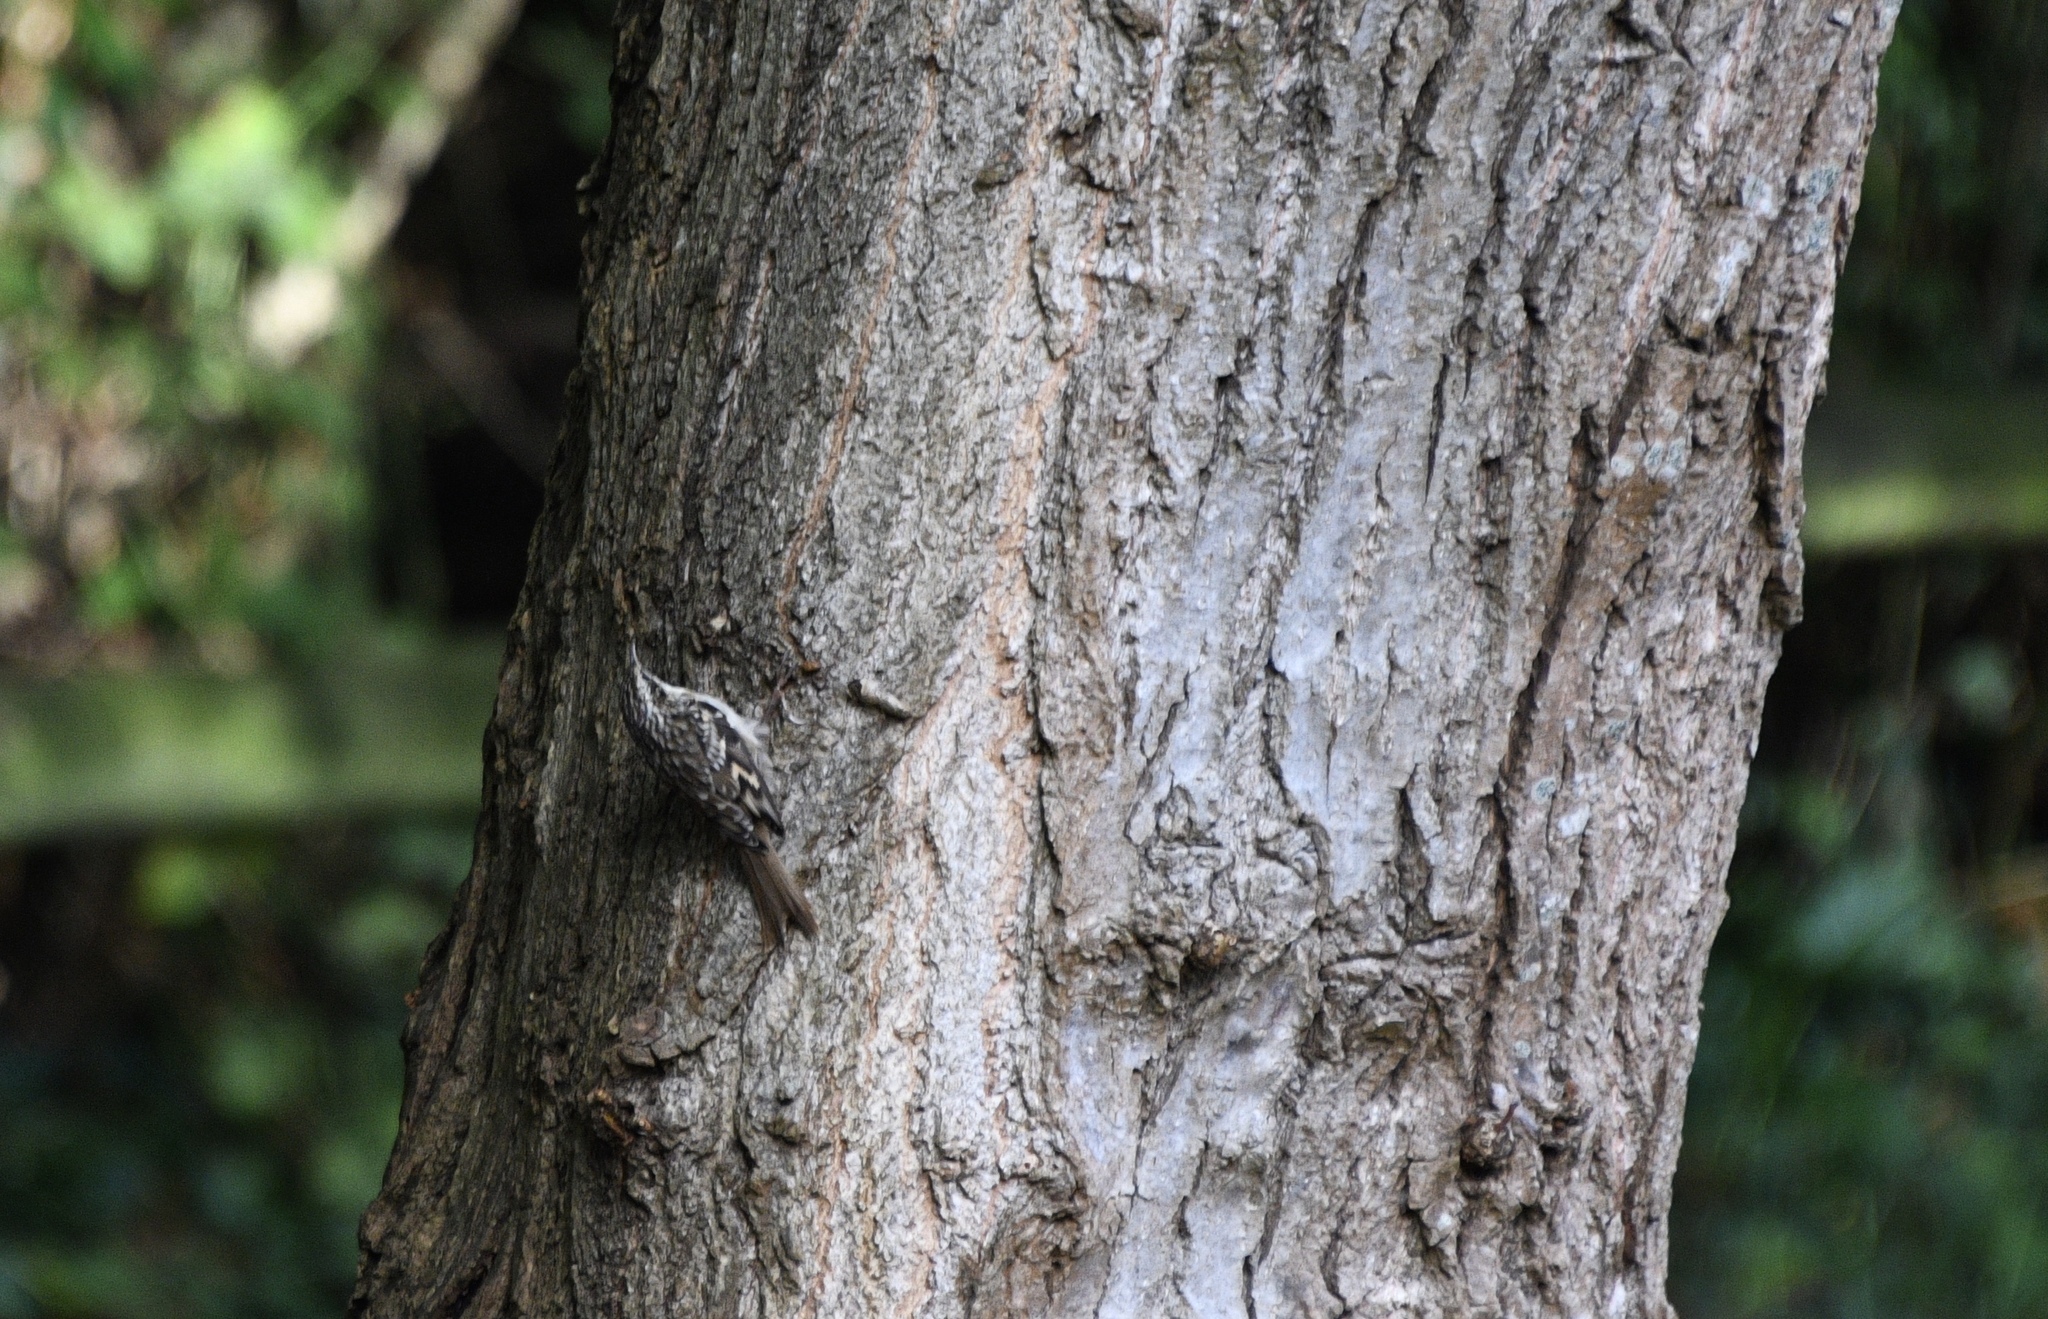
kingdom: Animalia
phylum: Chordata
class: Aves
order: Passeriformes
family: Certhiidae
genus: Certhia
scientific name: Certhia familiaris
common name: Eurasian treecreeper
